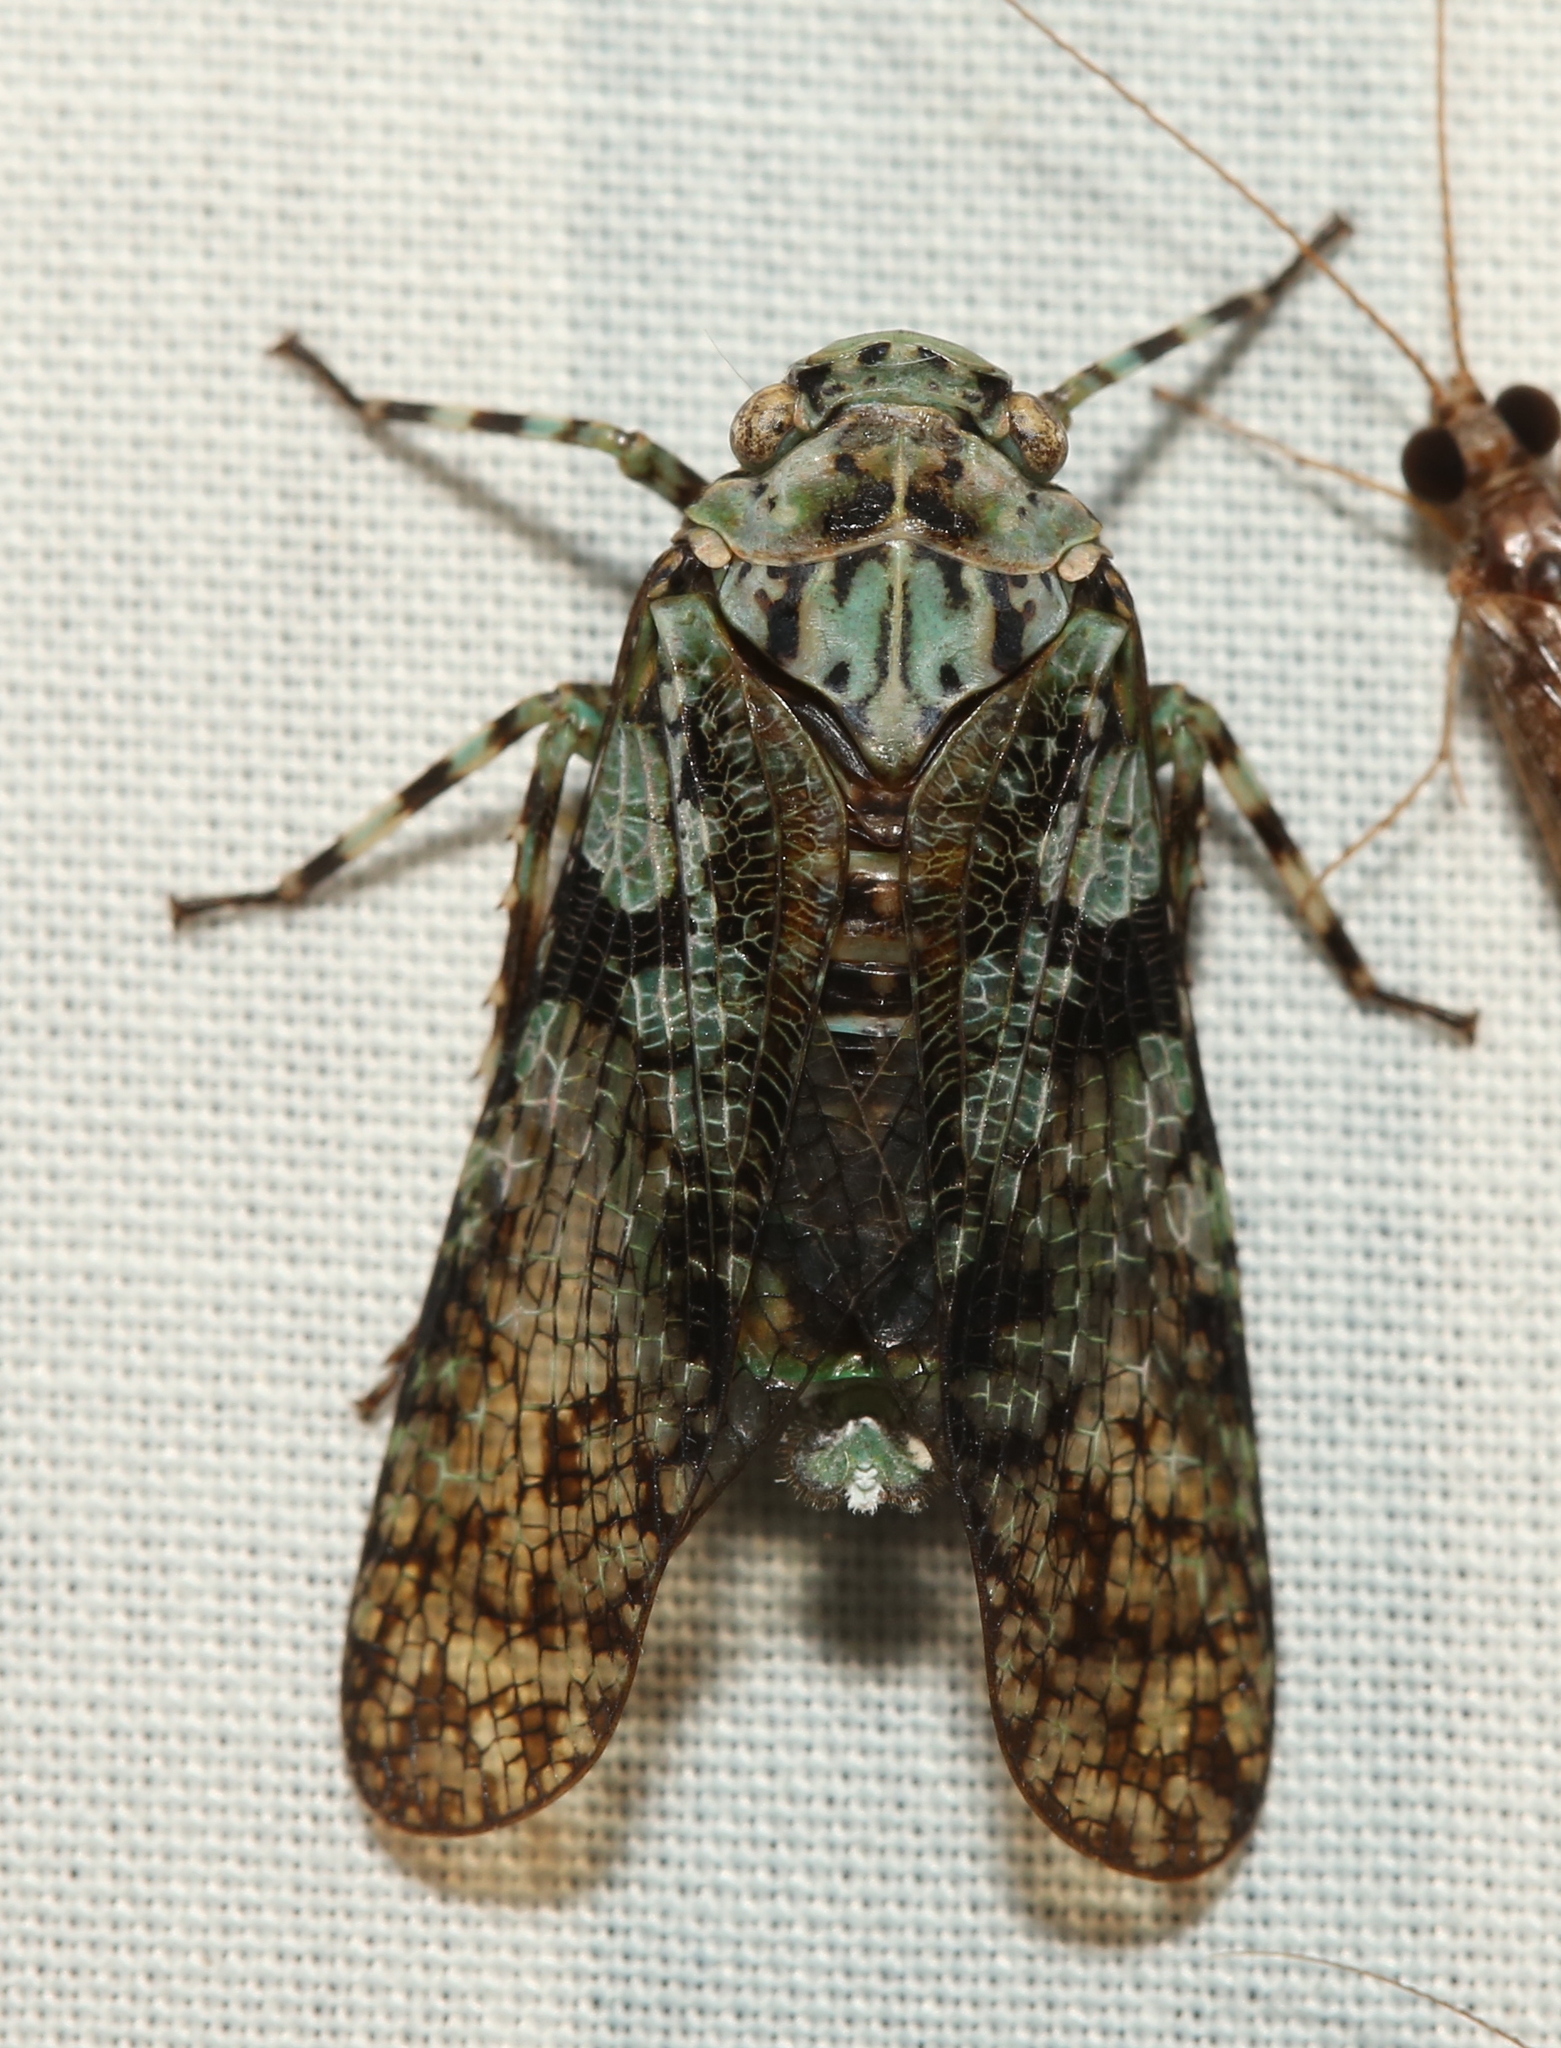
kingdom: Animalia
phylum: Arthropoda
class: Insecta
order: Hemiptera
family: Fulgoridae
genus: Calyptoproctus
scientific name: Calyptoproctus marmoratus
